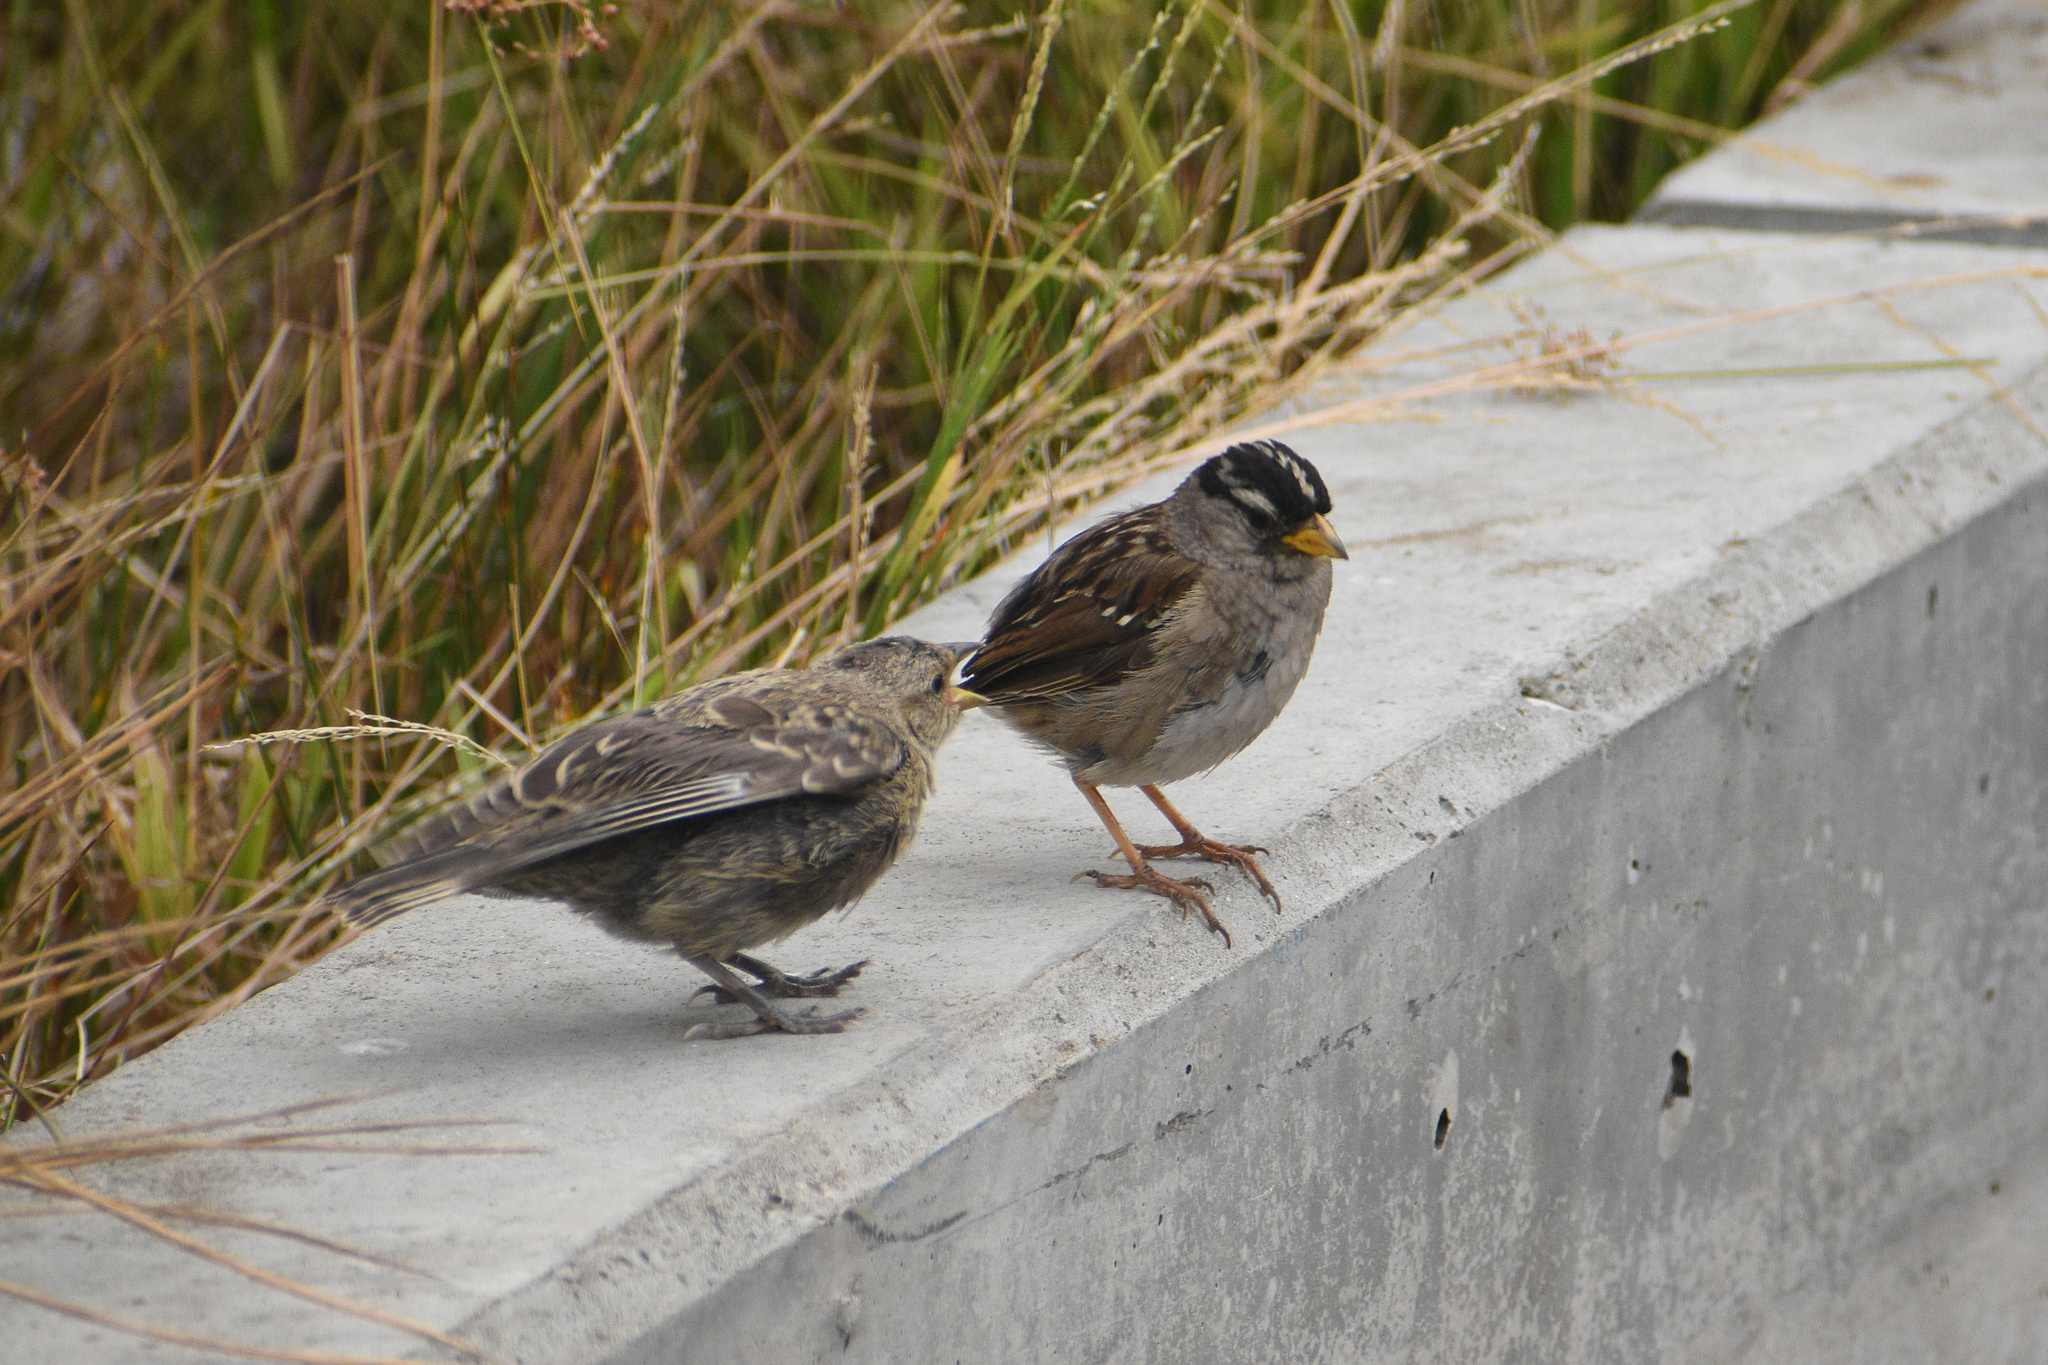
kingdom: Animalia
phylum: Chordata
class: Aves
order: Passeriformes
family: Icteridae
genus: Molothrus
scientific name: Molothrus ater
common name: Brown-headed cowbird
